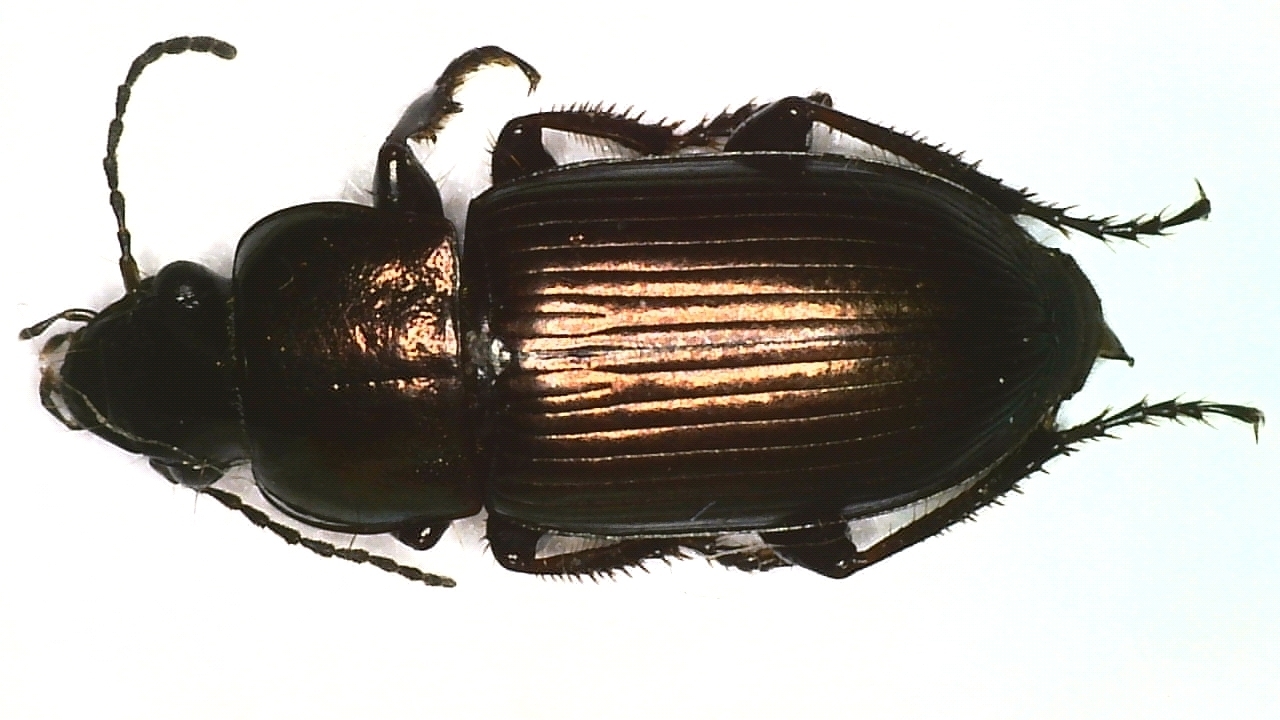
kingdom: Animalia
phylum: Arthropoda
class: Insecta
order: Coleoptera
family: Carabidae
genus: Harpalus
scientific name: Harpalus distinguendus
